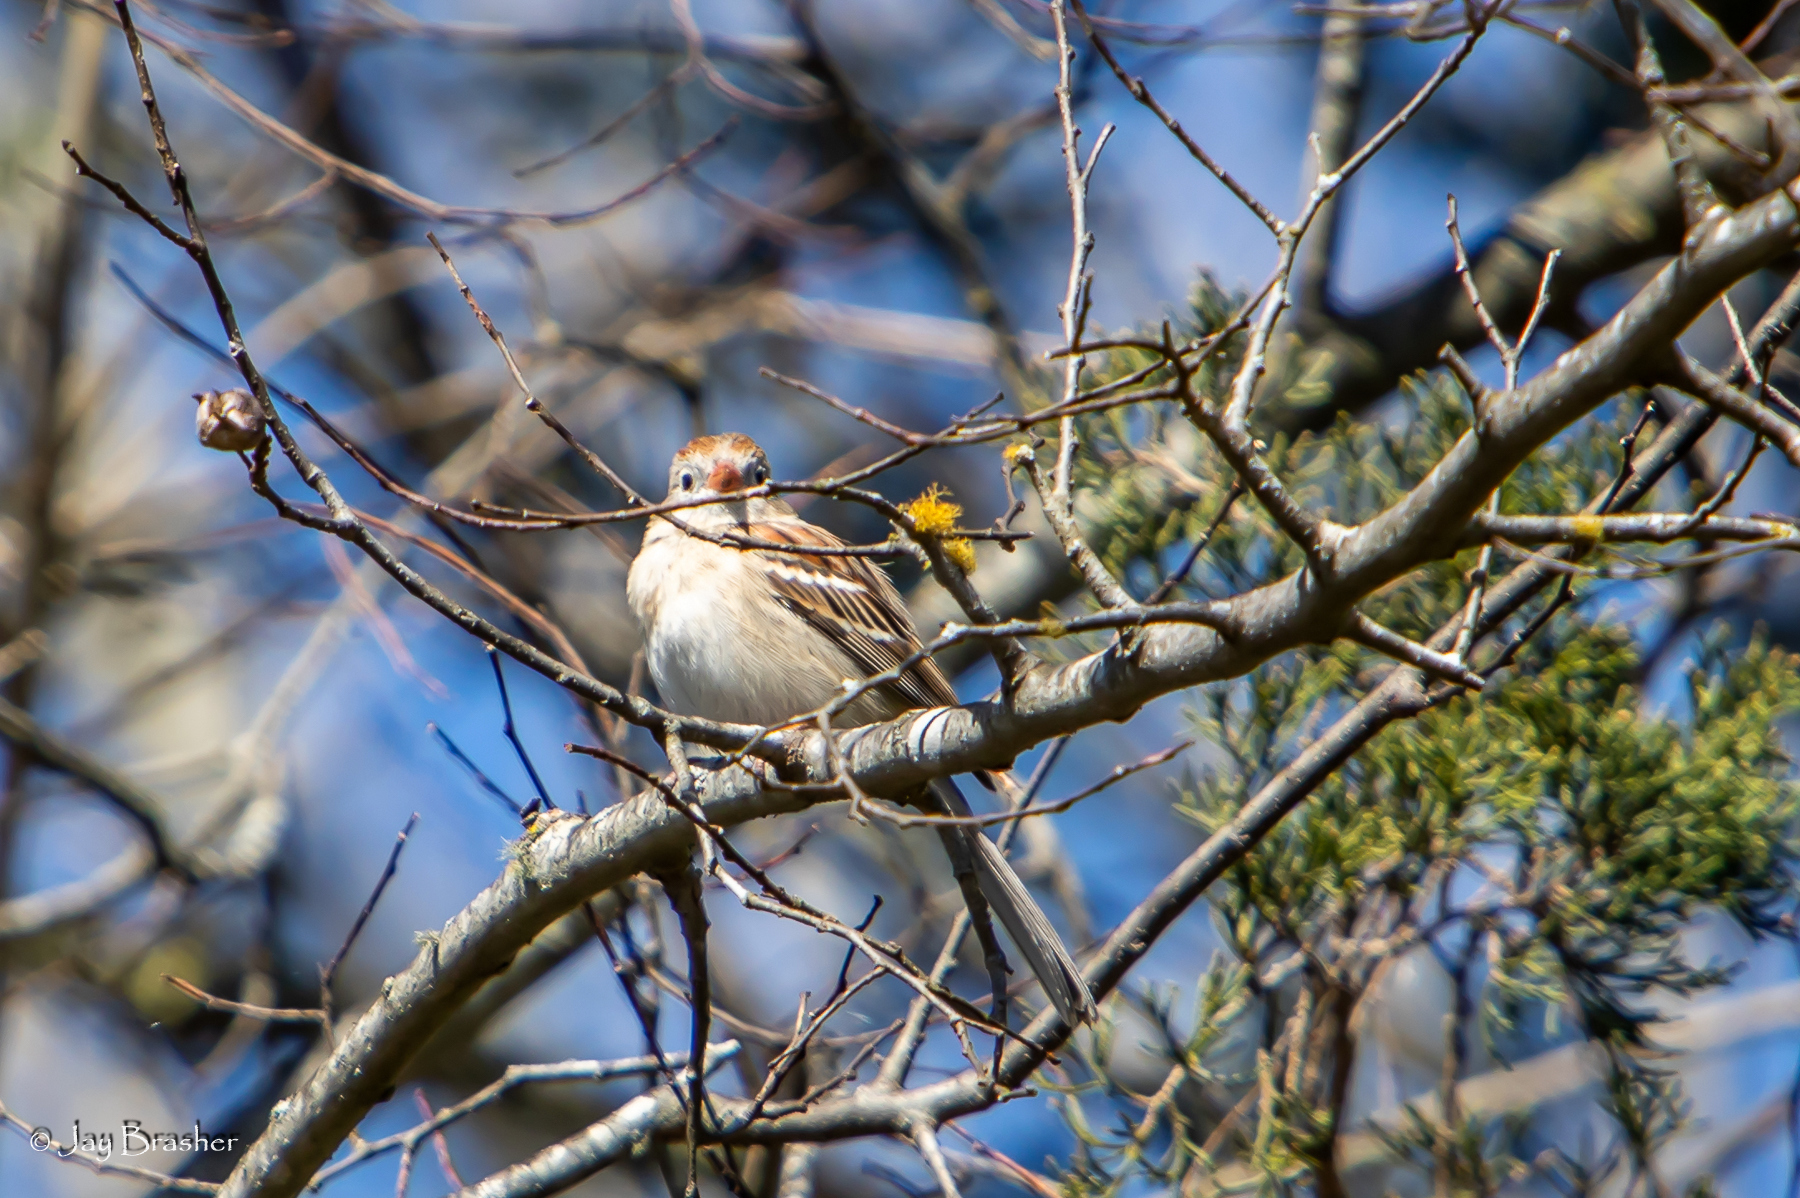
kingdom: Animalia
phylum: Chordata
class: Aves
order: Passeriformes
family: Passerellidae
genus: Spizella
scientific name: Spizella pusilla
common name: Field sparrow
